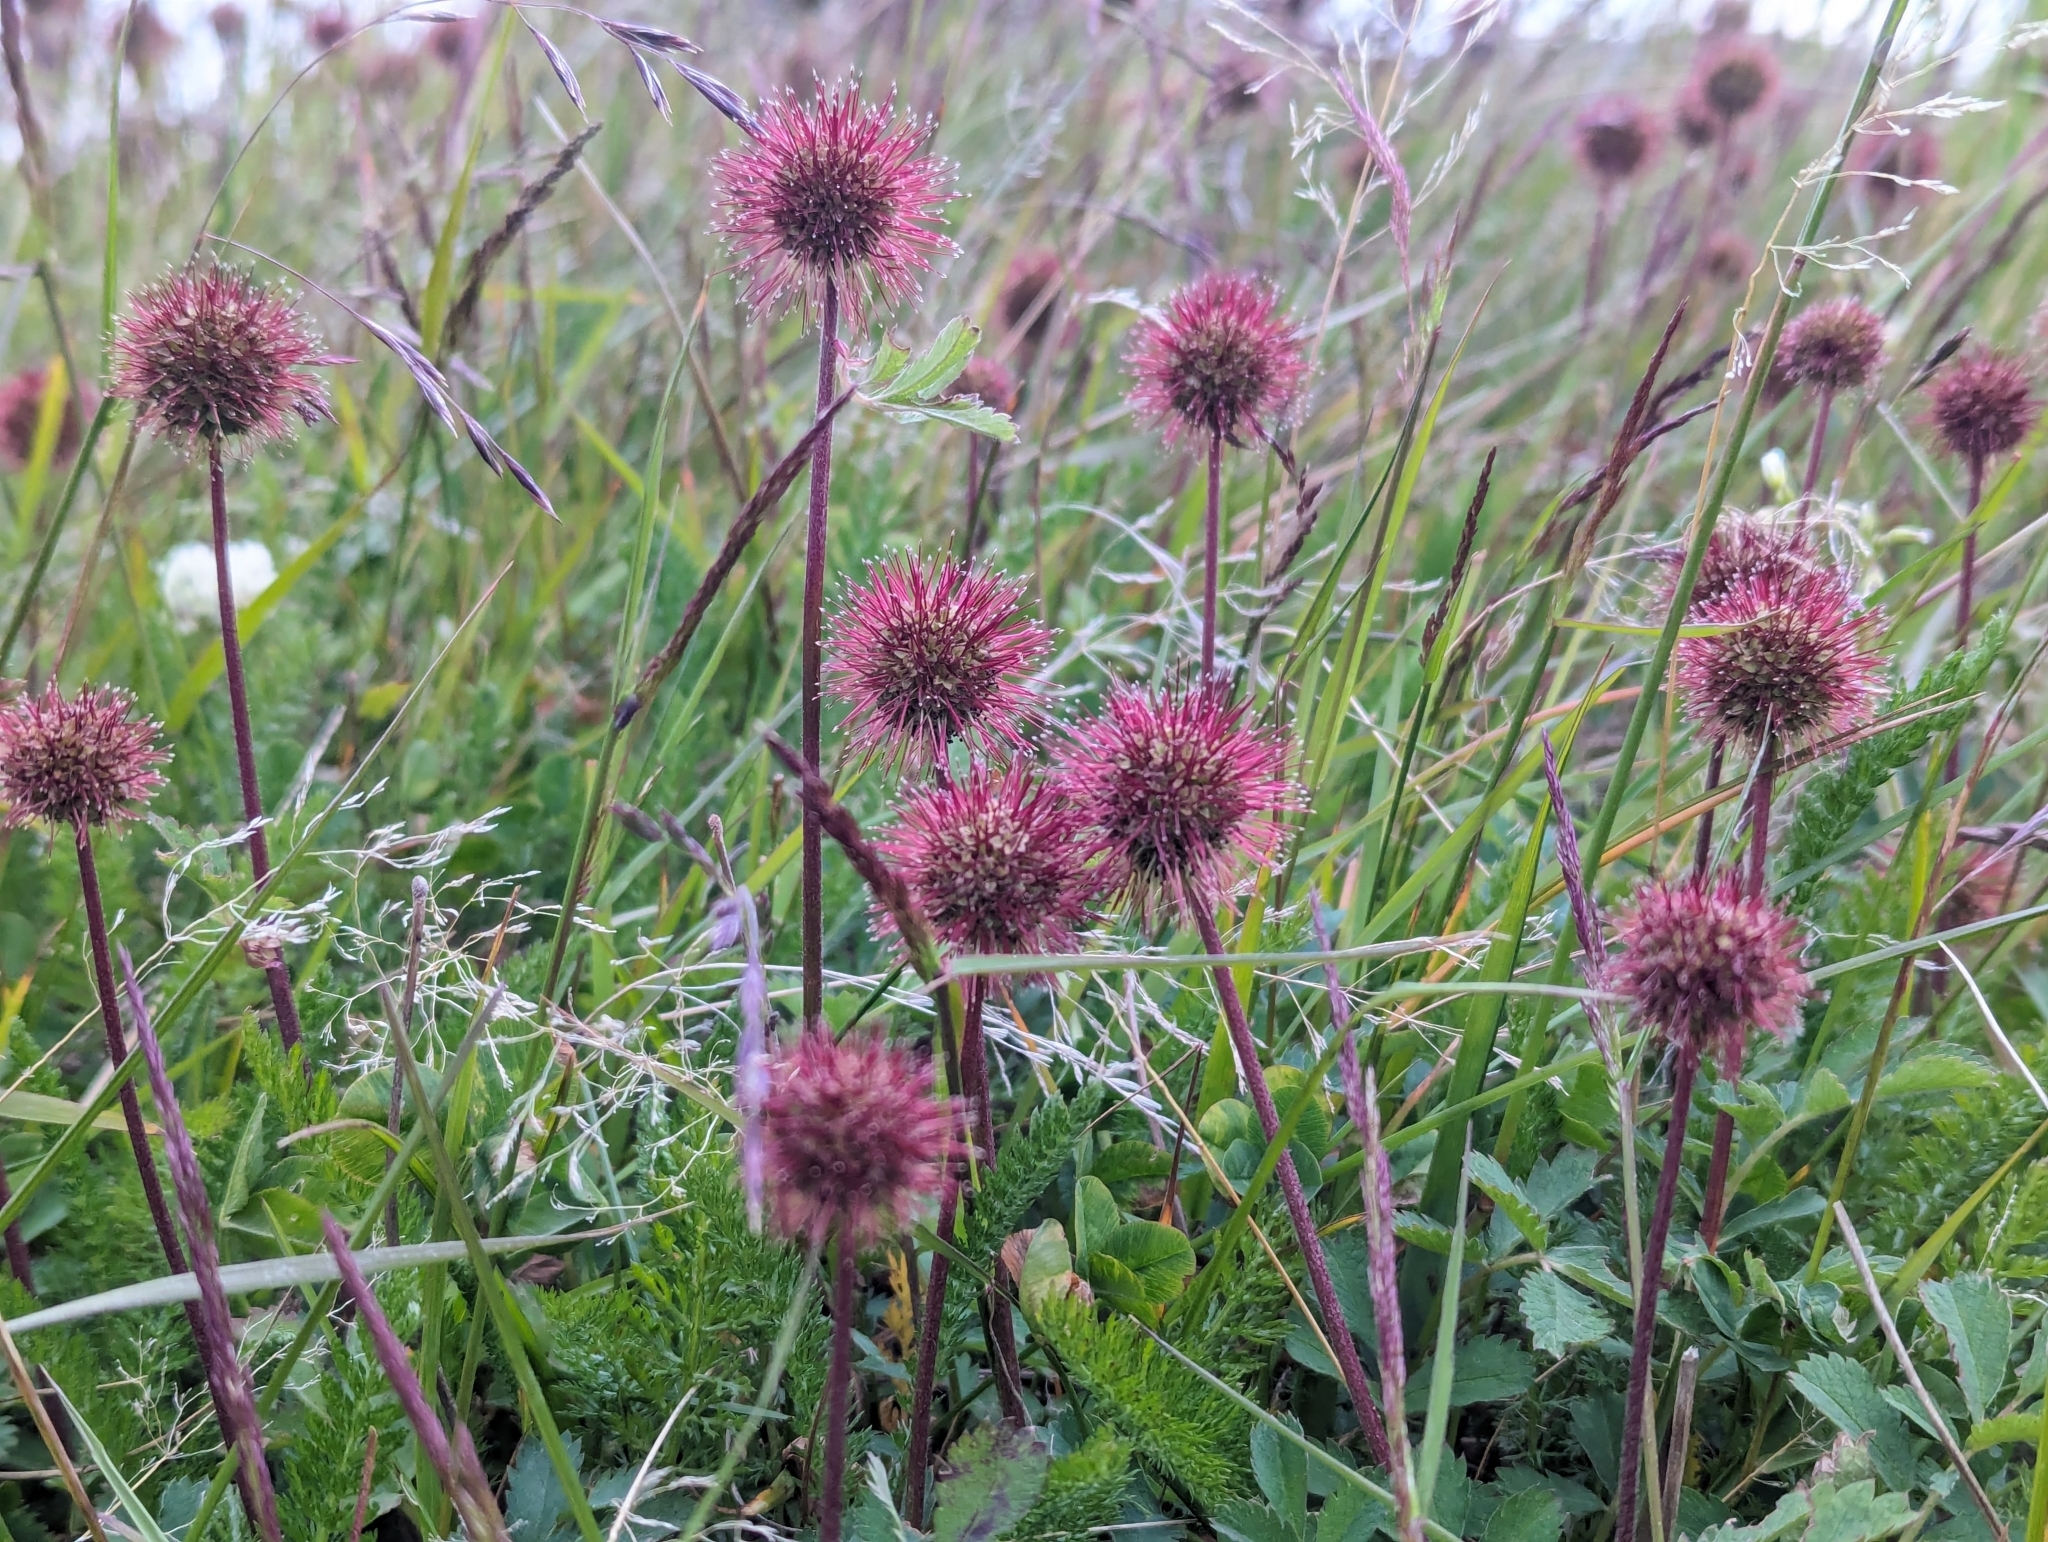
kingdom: Plantae
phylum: Tracheophyta
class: Magnoliopsida
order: Rosales
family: Rosaceae
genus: Acaena
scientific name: Acaena magellanica
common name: New zealand burr
